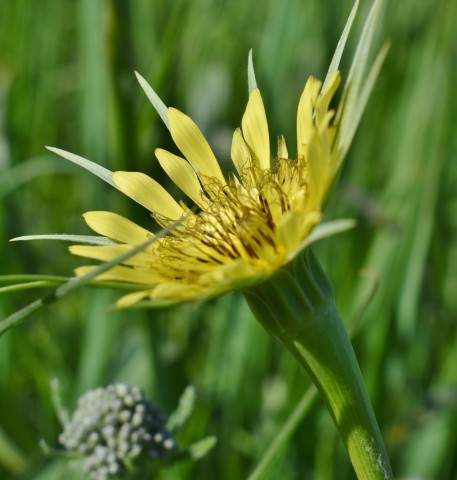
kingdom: Plantae
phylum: Tracheophyta
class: Magnoliopsida
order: Asterales
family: Asteraceae
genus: Tragopogon
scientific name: Tragopogon dubius
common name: Yellow salsify
